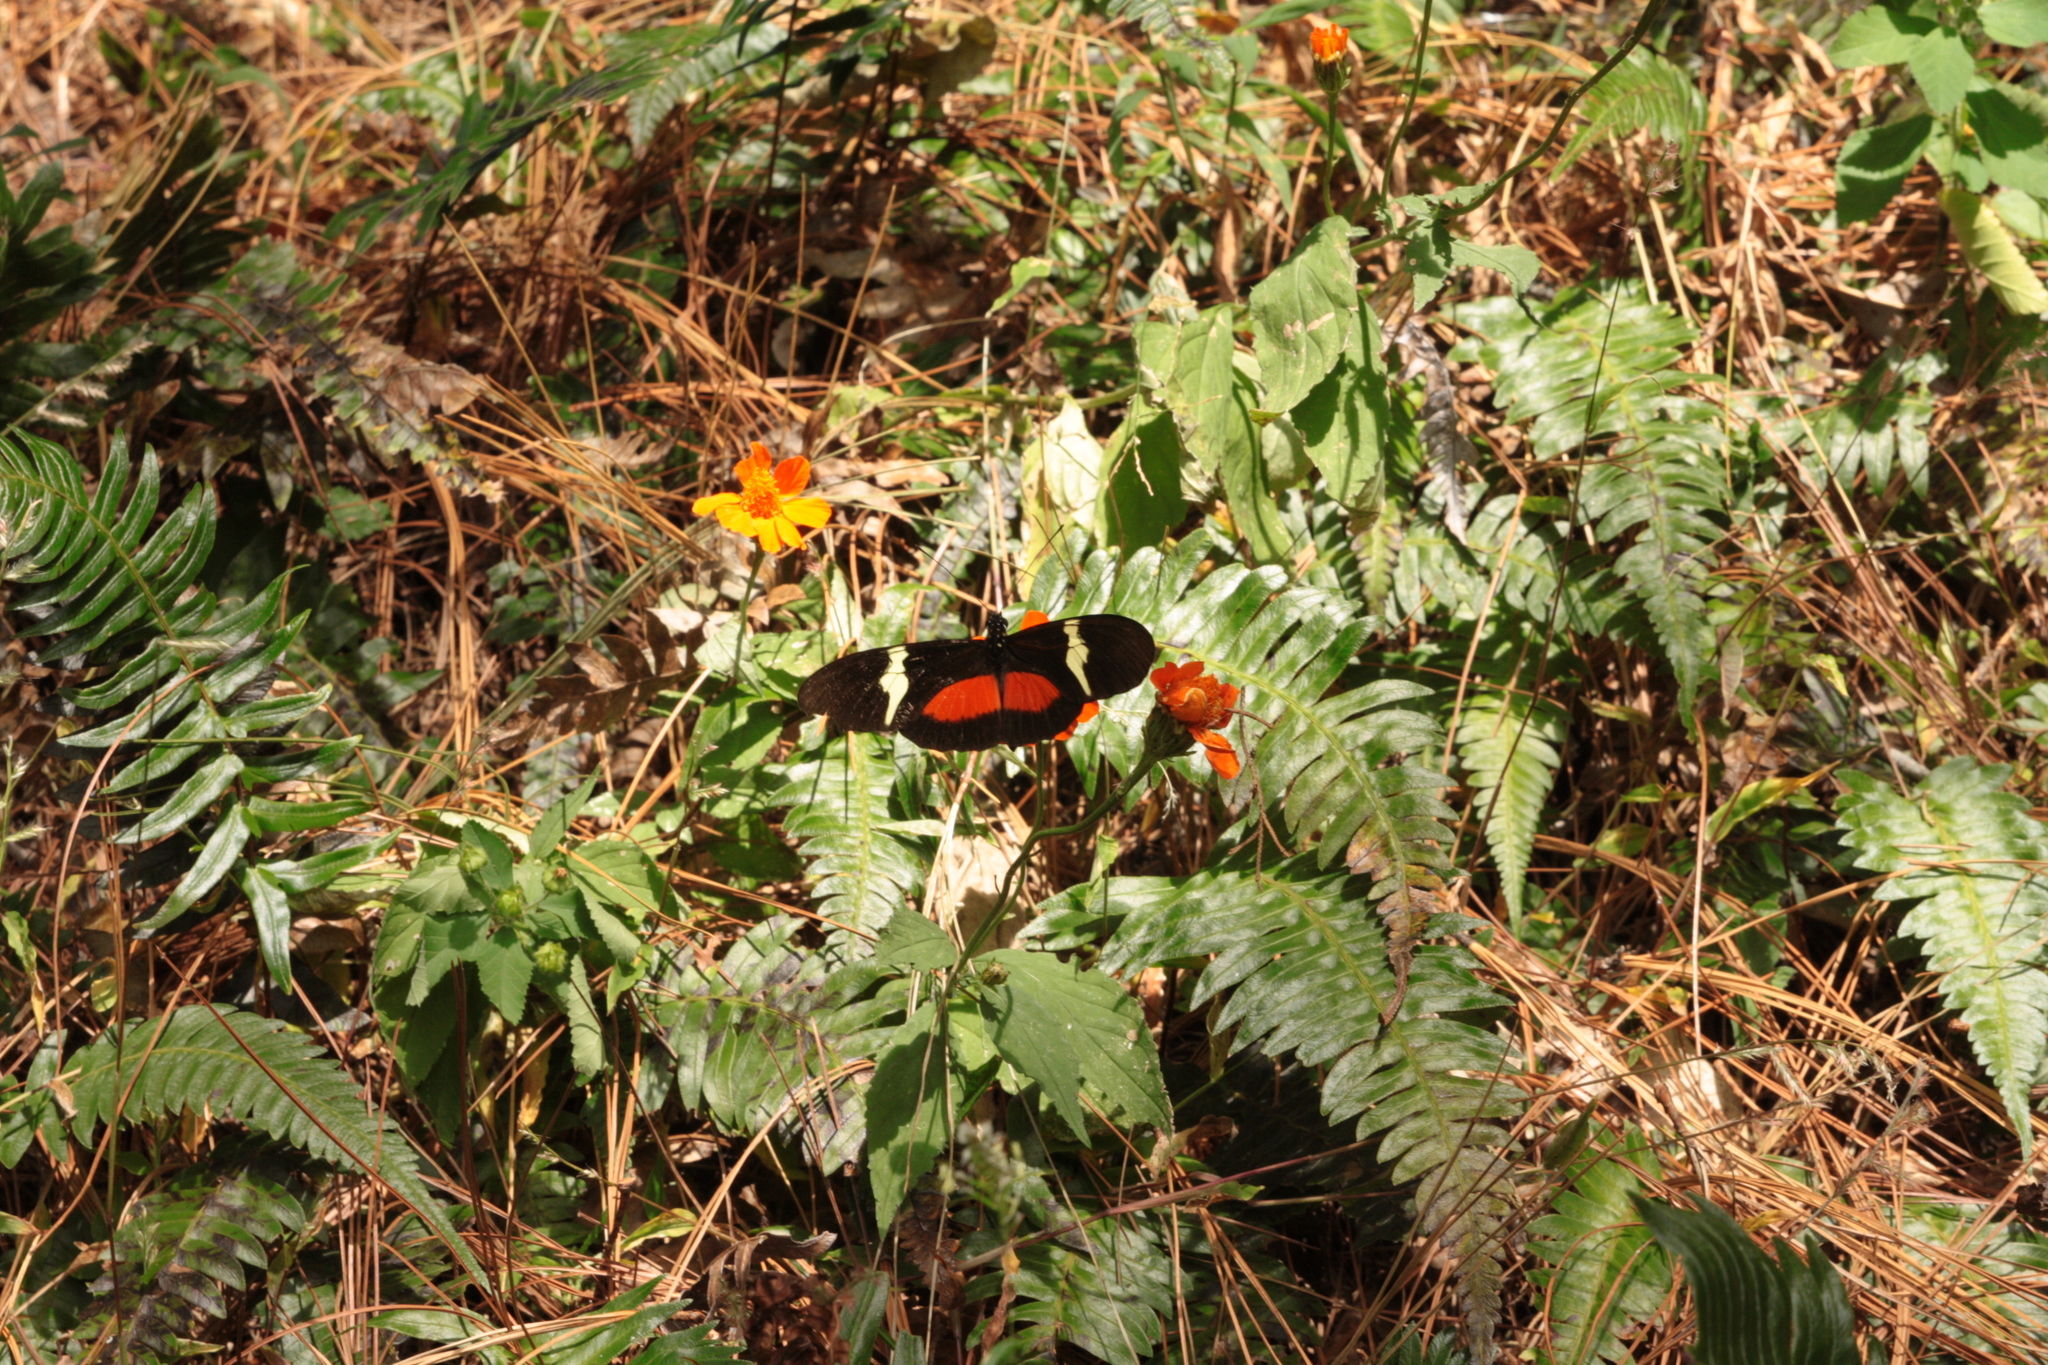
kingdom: Animalia
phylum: Arthropoda
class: Insecta
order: Lepidoptera
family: Nymphalidae
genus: Heliconius
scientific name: Heliconius clysonymus
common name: Clysonymus longwing
